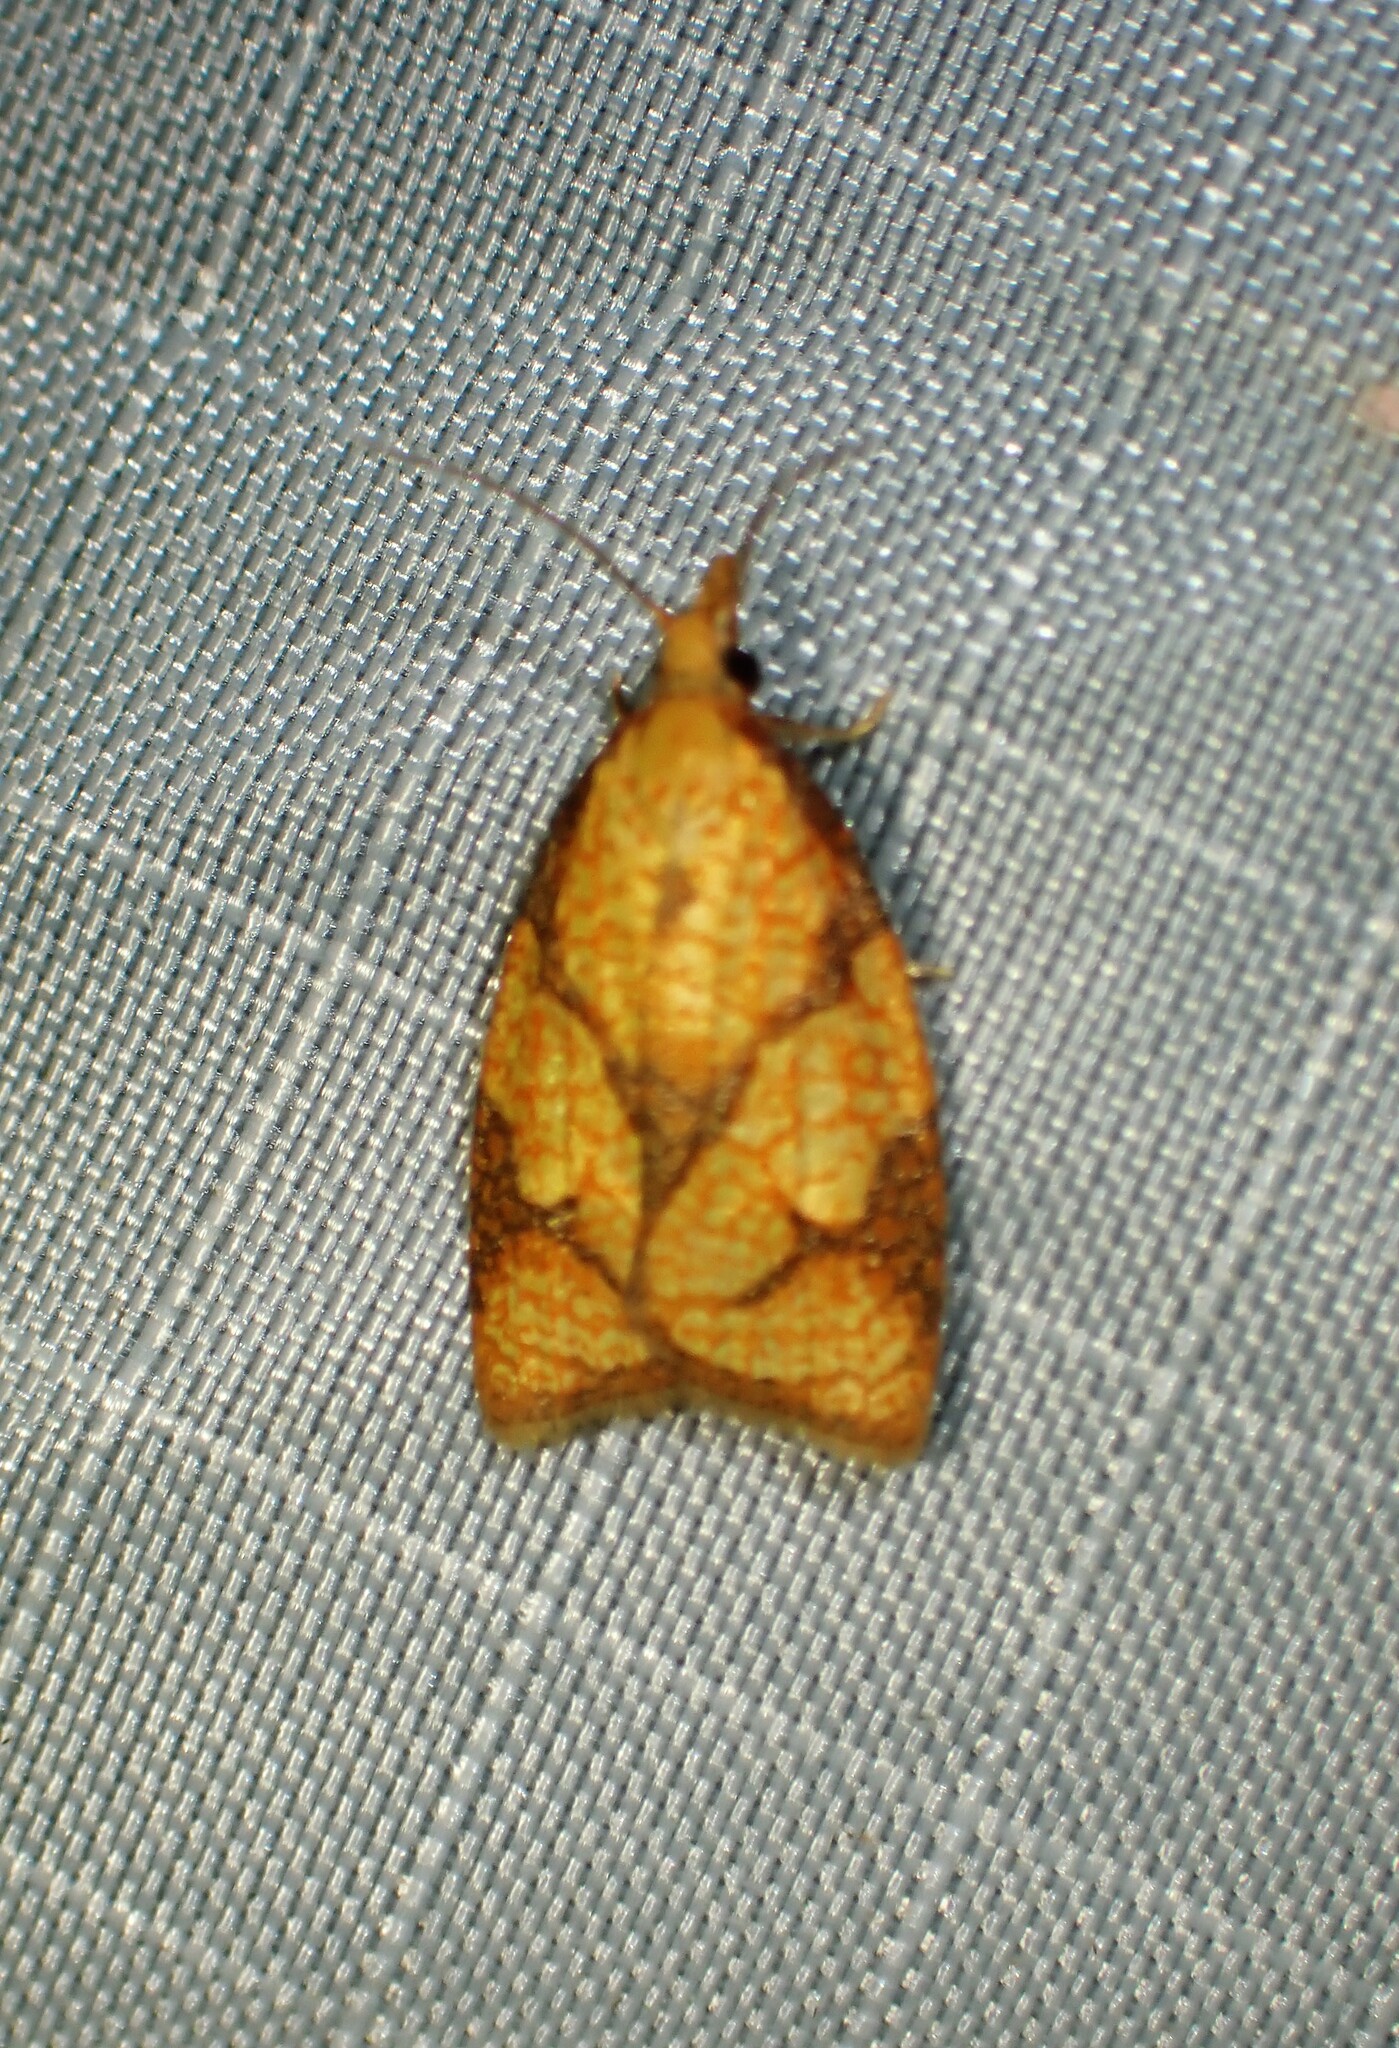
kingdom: Animalia
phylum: Arthropoda
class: Insecta
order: Lepidoptera
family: Tortricidae
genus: Cenopis
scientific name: Cenopis reticulatana
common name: Reticulated fruitworm moth
